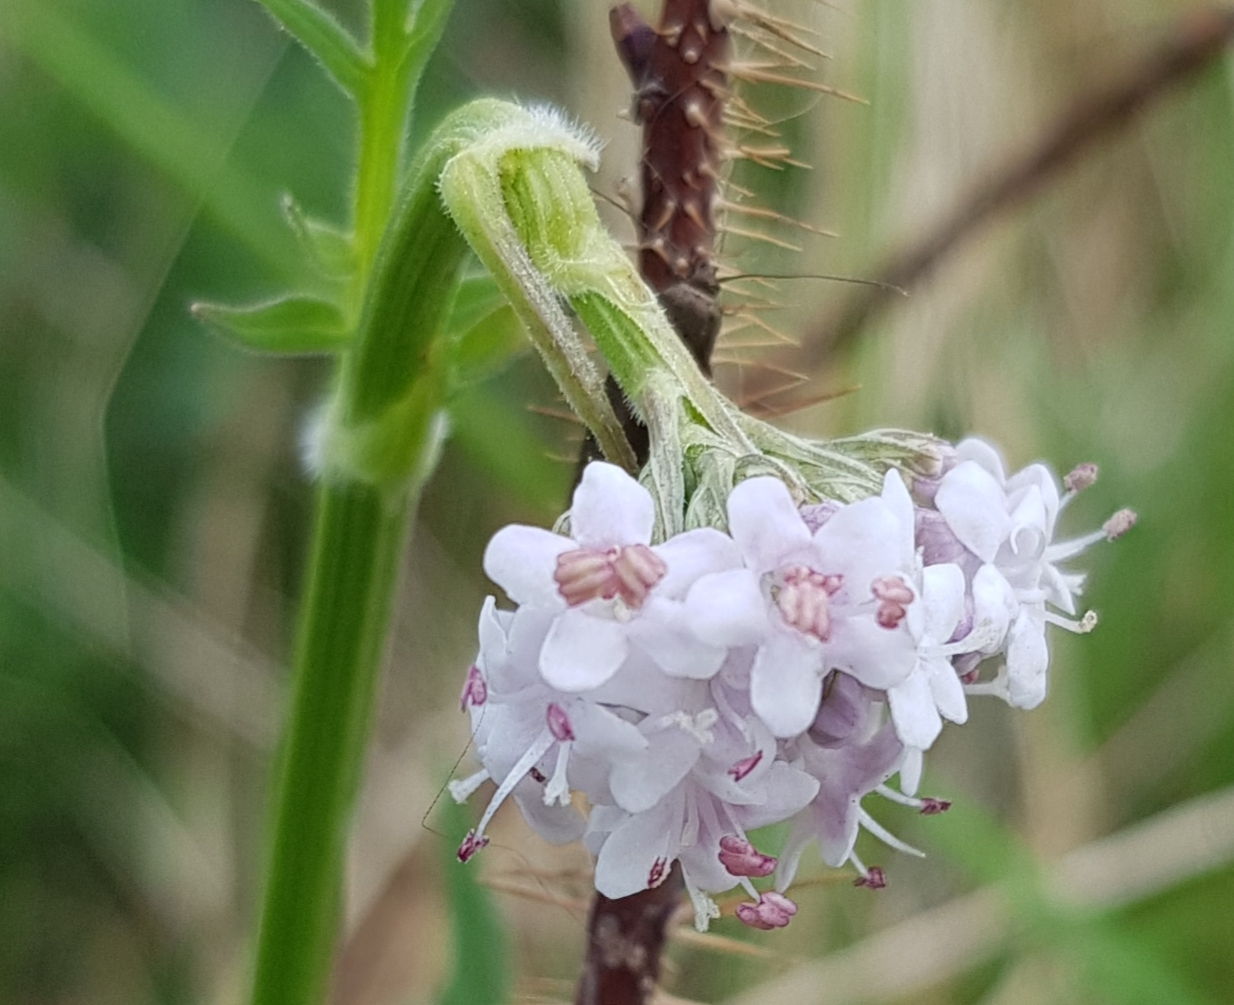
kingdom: Plantae
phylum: Tracheophyta
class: Magnoliopsida
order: Dipsacales
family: Caprifoliaceae
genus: Valeriana
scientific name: Valeriana officinalis
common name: Common valerian
